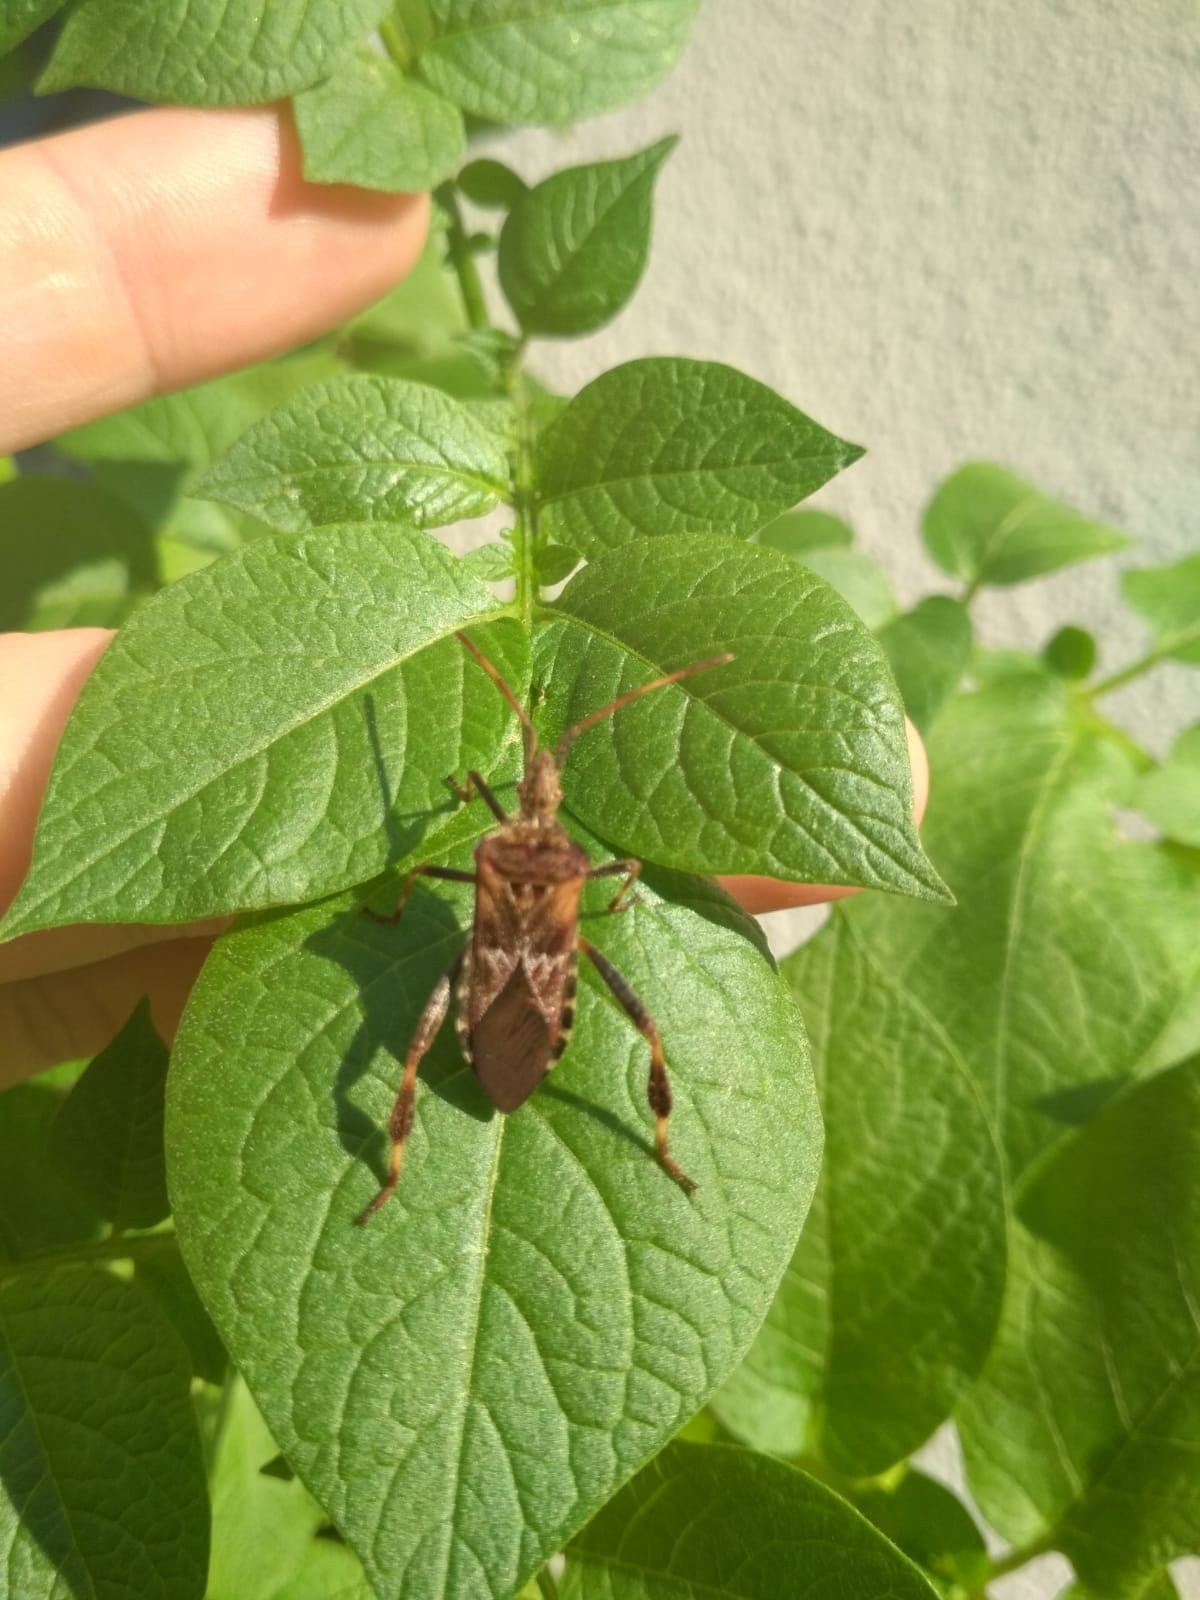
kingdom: Animalia
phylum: Arthropoda
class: Insecta
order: Hemiptera
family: Coreidae
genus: Leptoglossus
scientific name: Leptoglossus occidentalis
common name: Western conifer-seed bug
